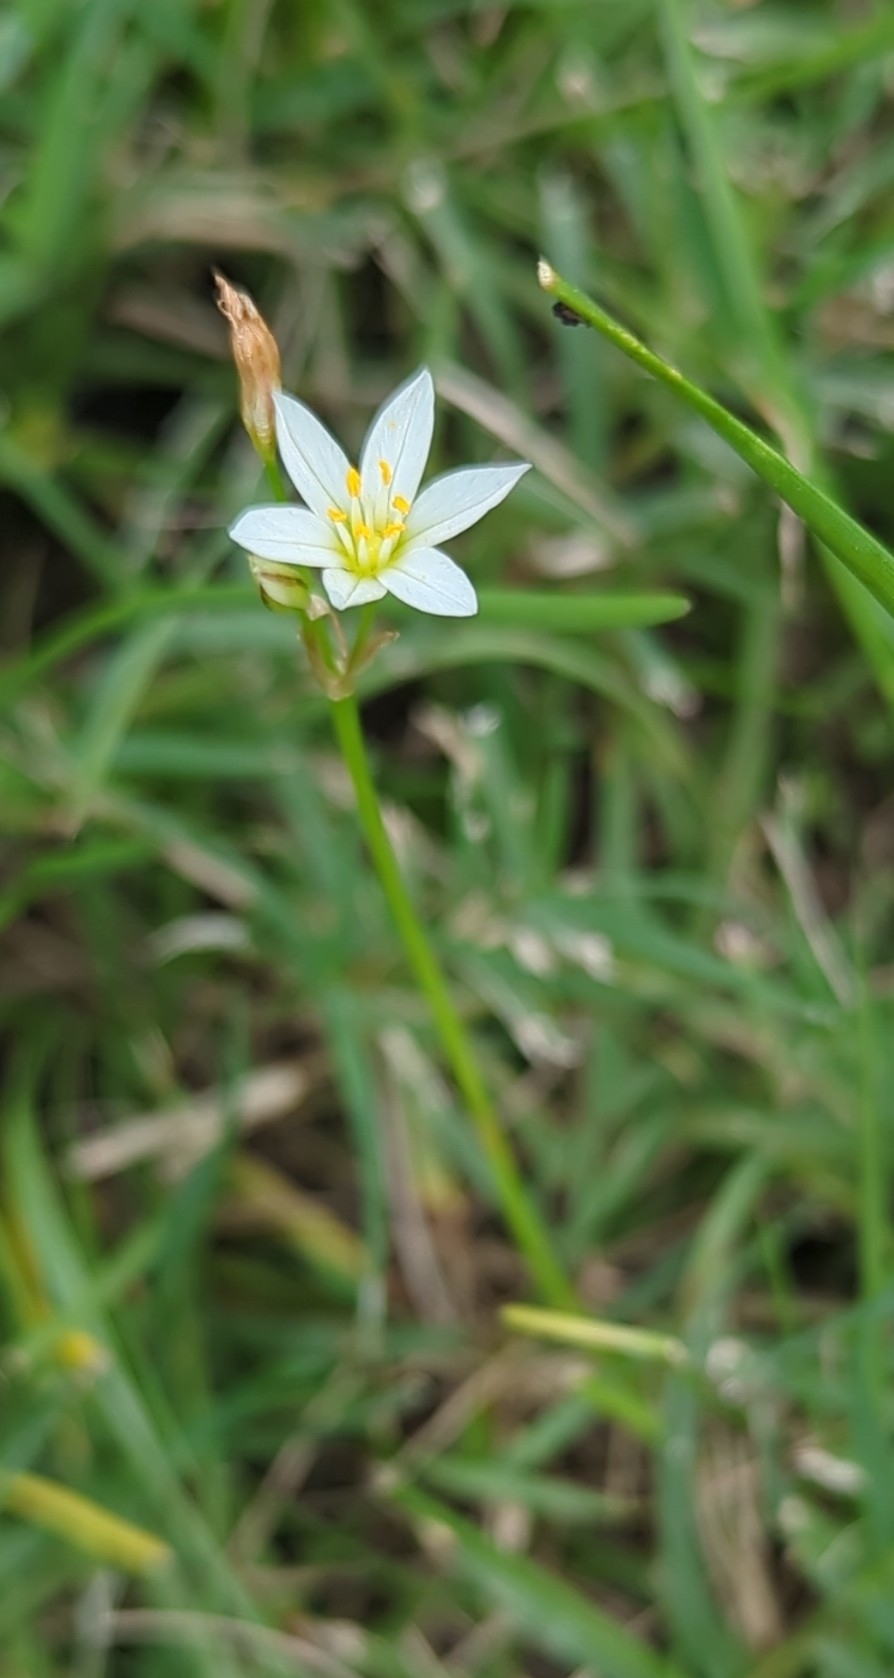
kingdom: Plantae
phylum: Tracheophyta
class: Liliopsida
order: Asparagales
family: Amaryllidaceae
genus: Nothoscordum
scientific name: Nothoscordum bivalve
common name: Crow-poison
